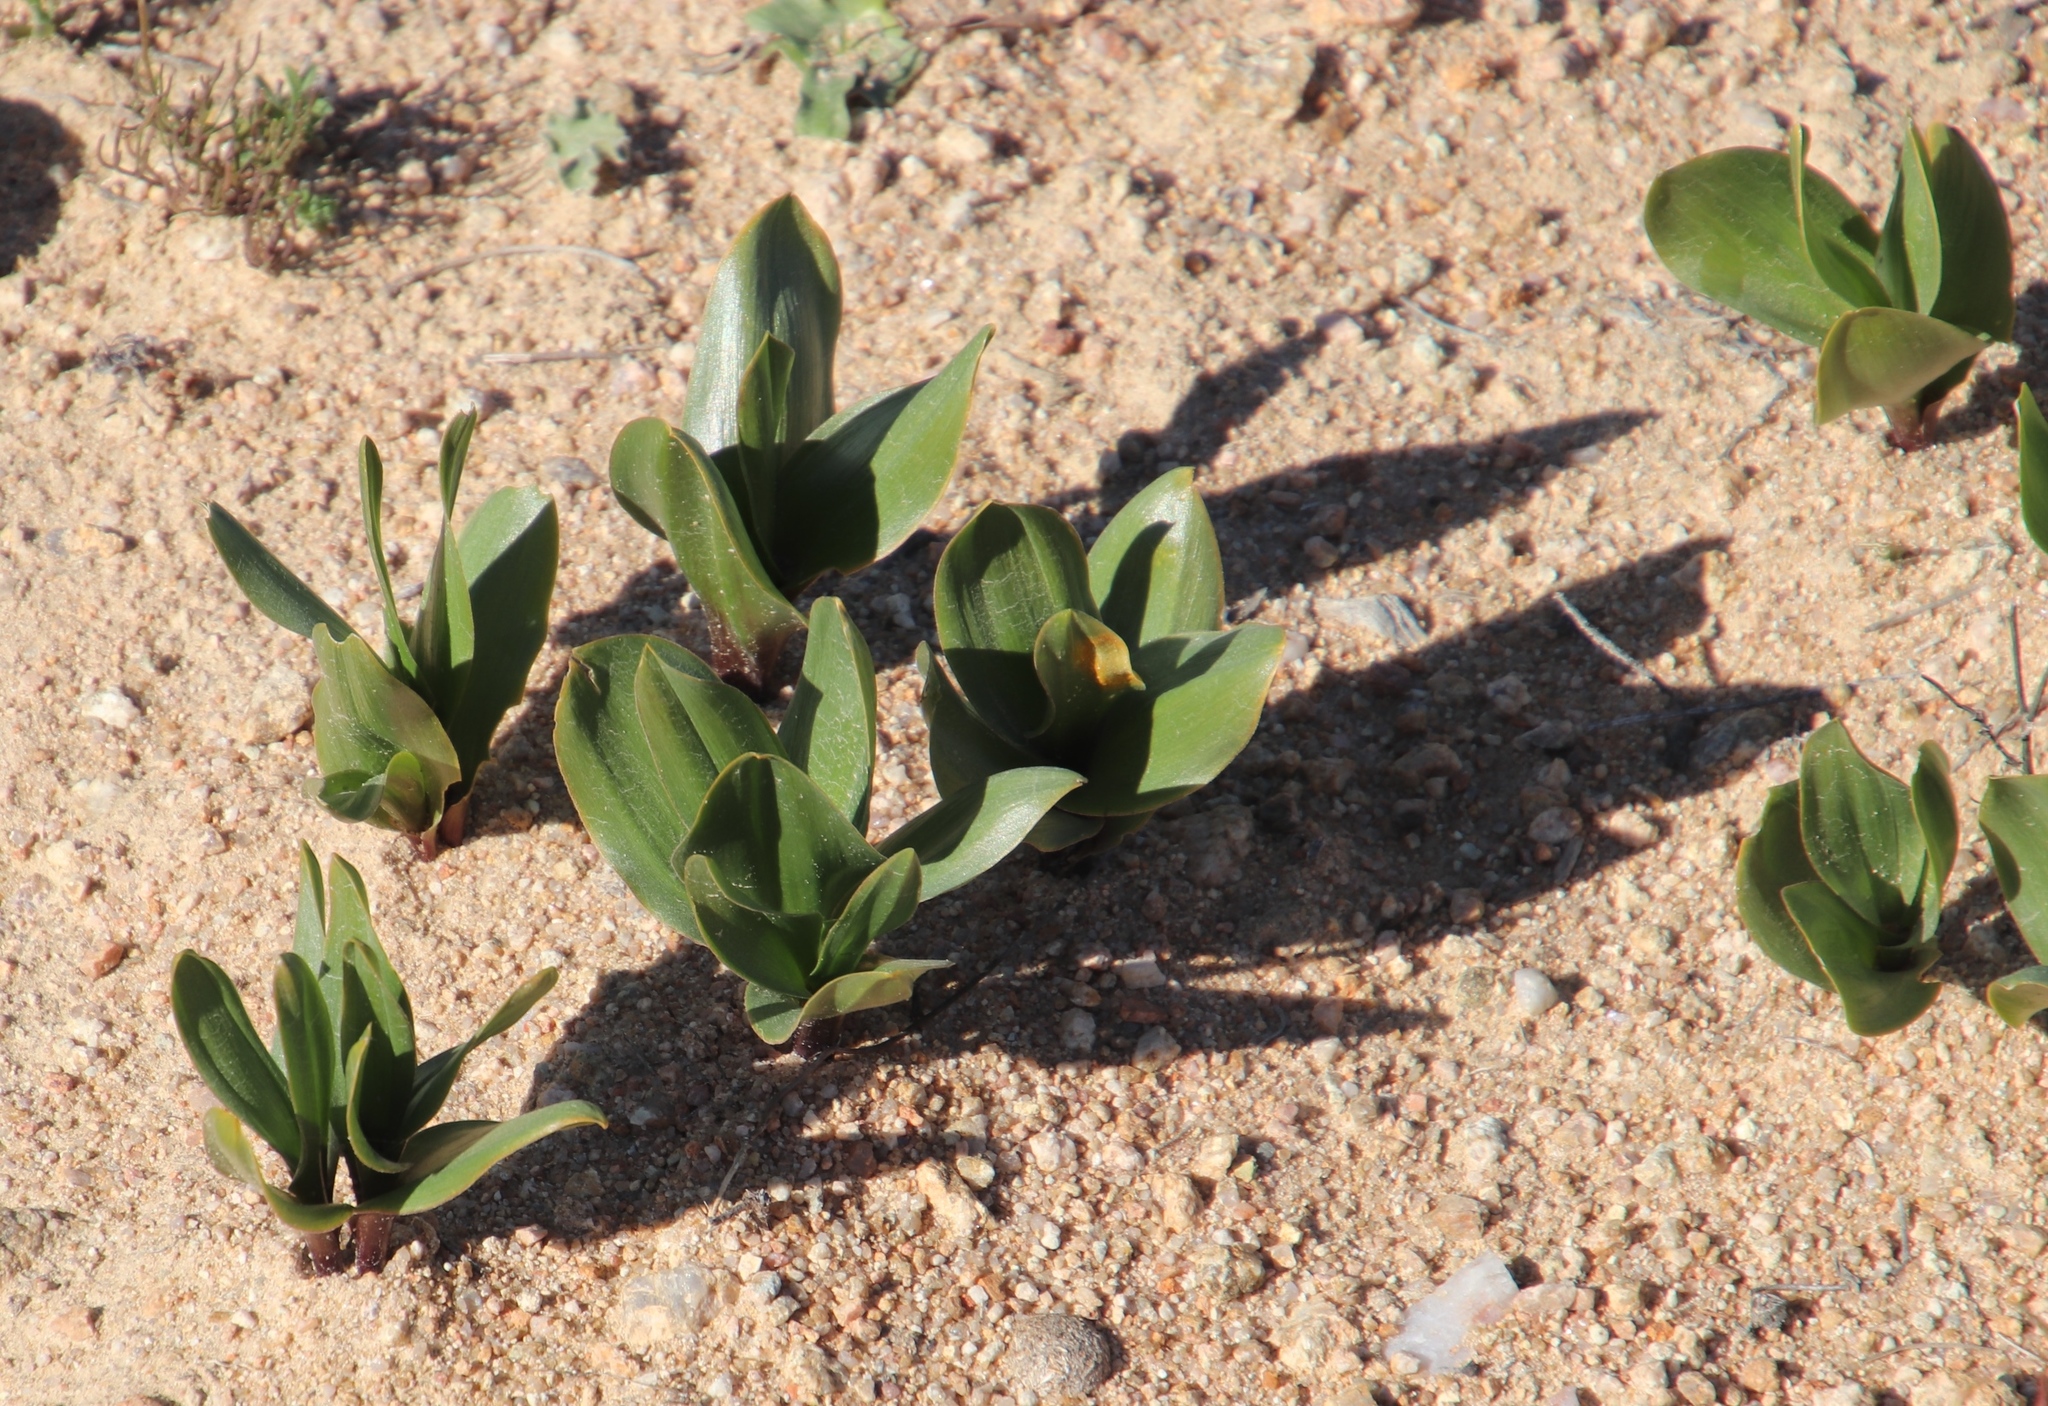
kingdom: Plantae
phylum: Tracheophyta
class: Liliopsida
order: Asparagales
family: Asparagaceae
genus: Fusifilum
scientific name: Fusifilum physodes
